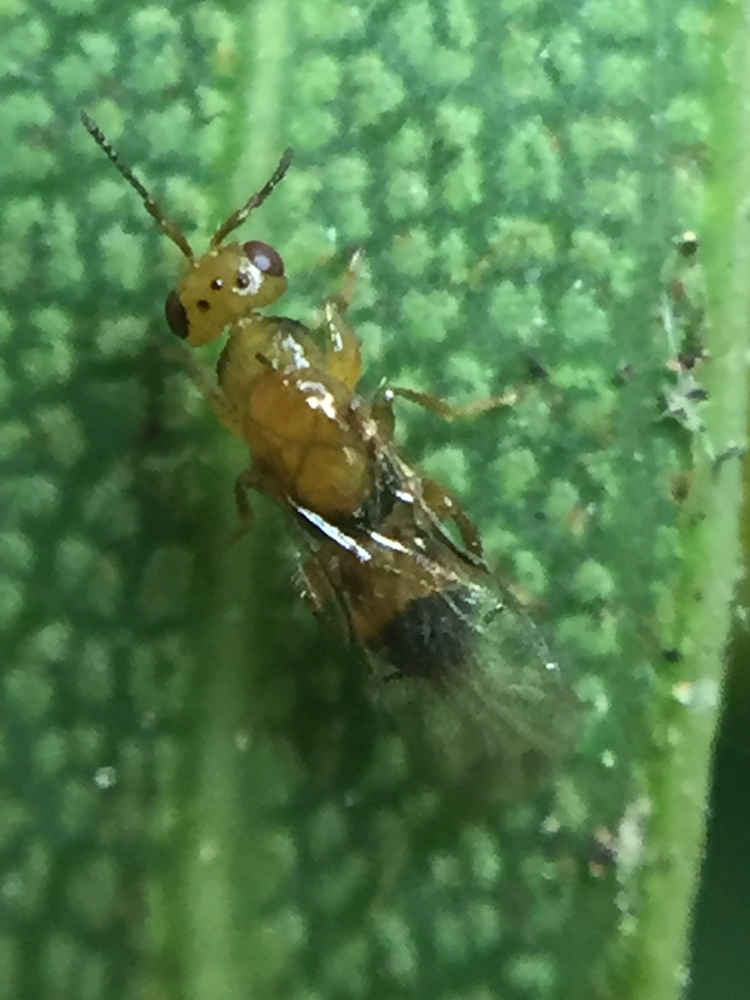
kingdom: Animalia
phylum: Arthropoda
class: Insecta
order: Hymenoptera
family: Agaonidae
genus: Herodotia
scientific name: Herodotia subatriventris
